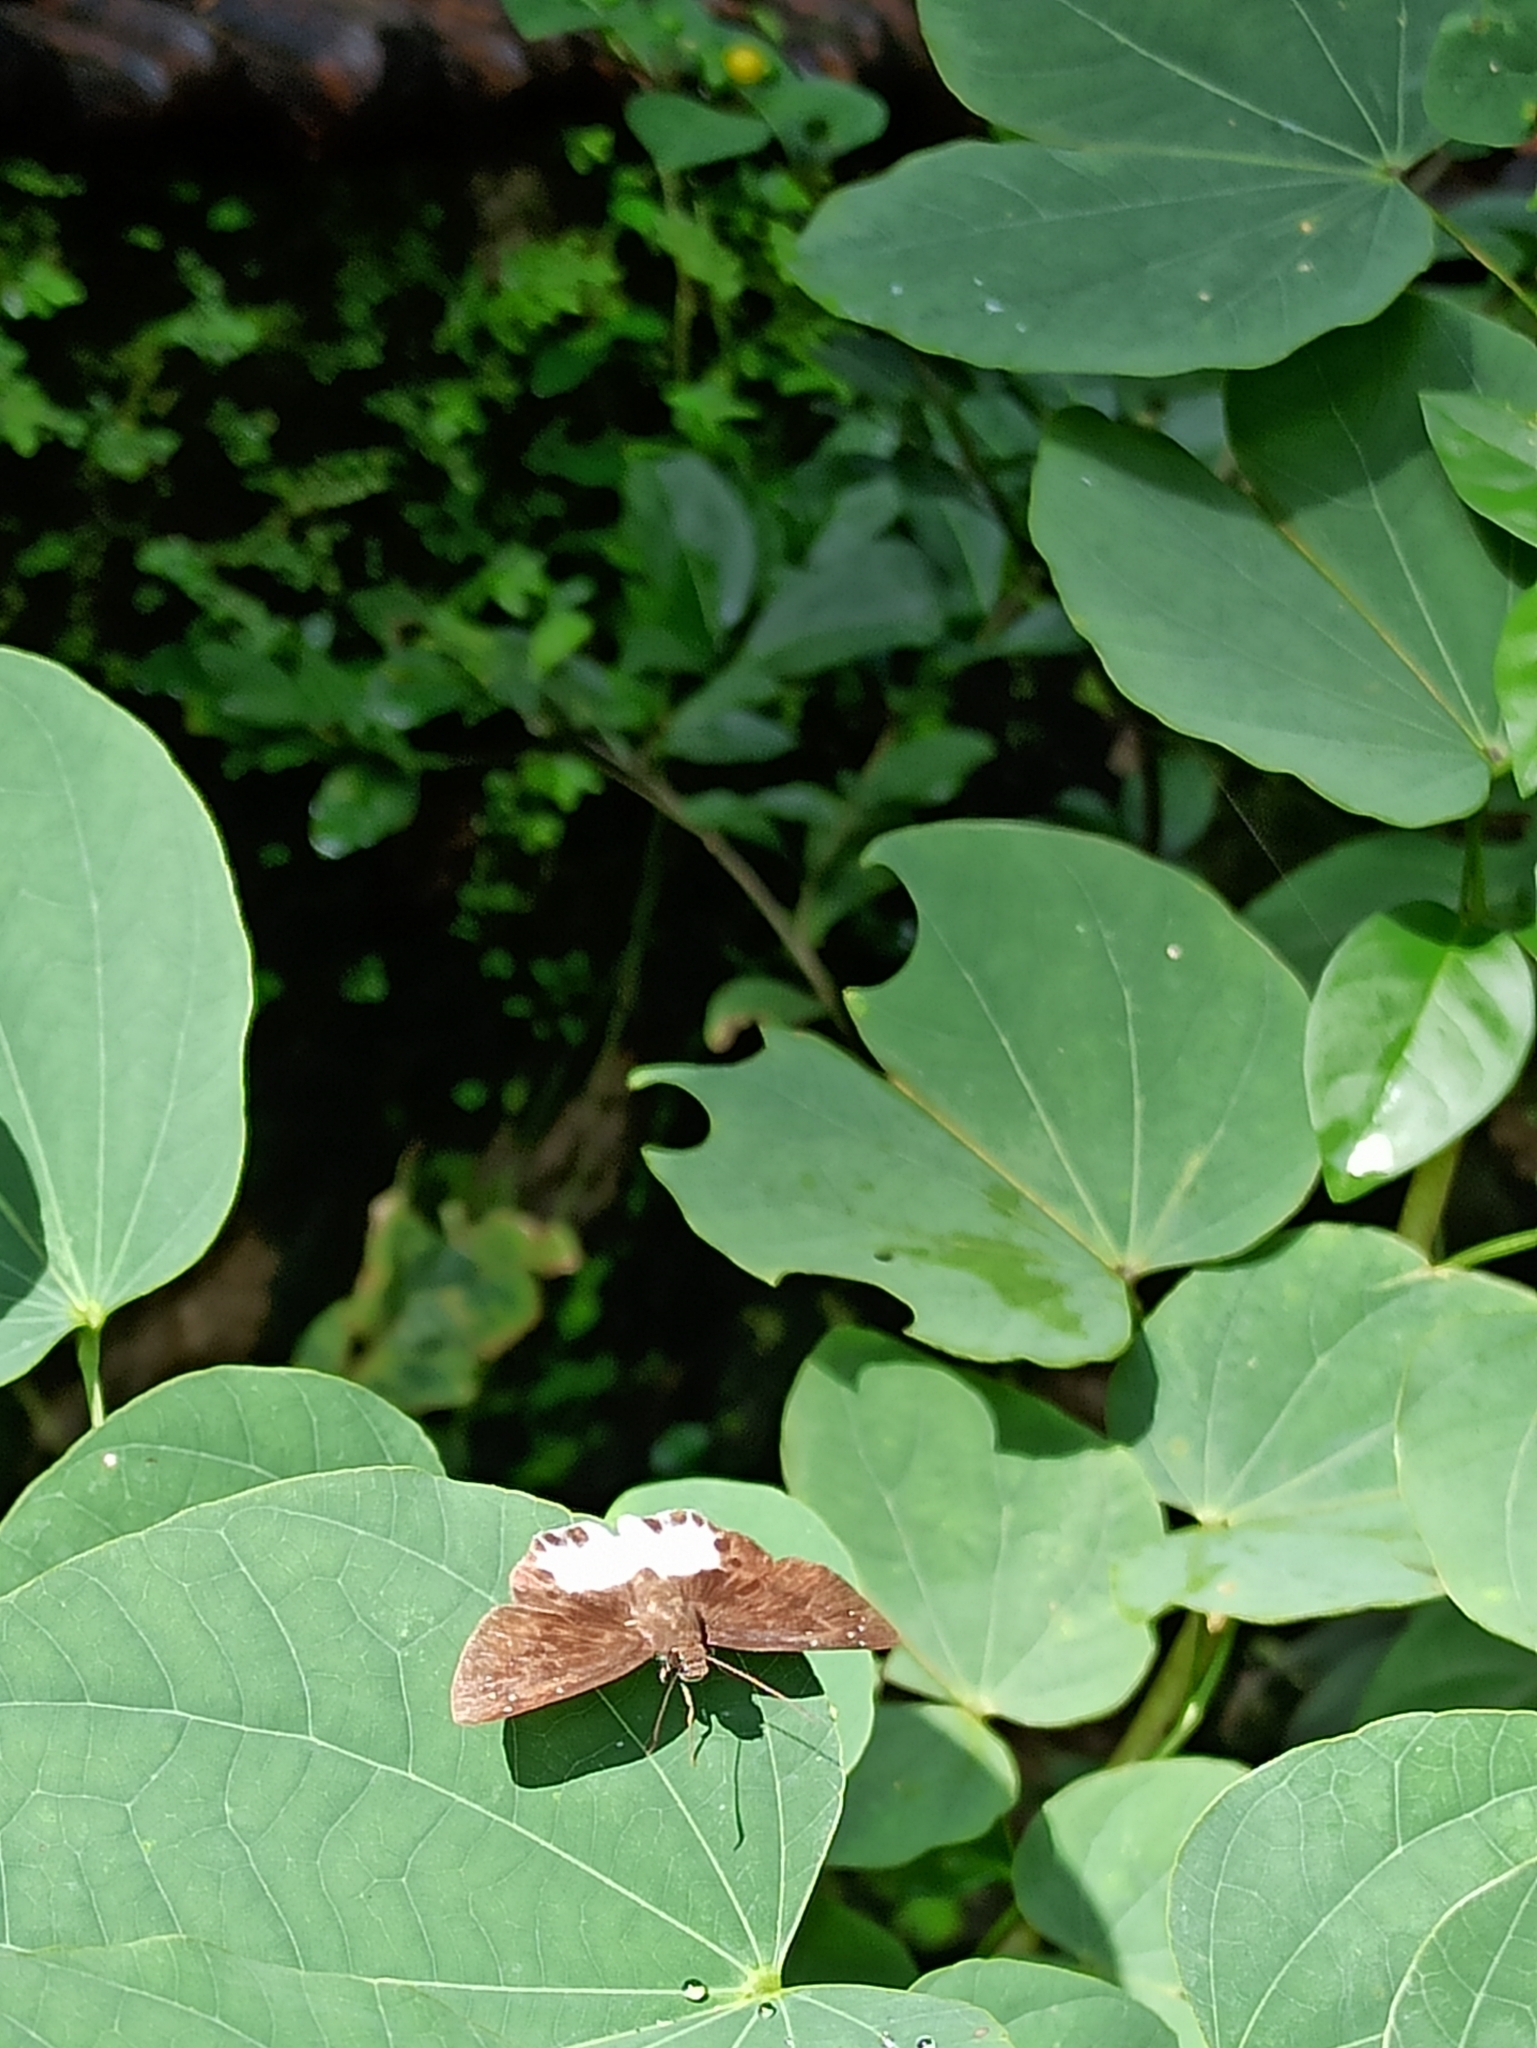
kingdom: Animalia
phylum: Arthropoda
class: Insecta
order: Lepidoptera
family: Hesperiidae
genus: Tagiades
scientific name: Tagiades litigiosa
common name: Water snow flat
